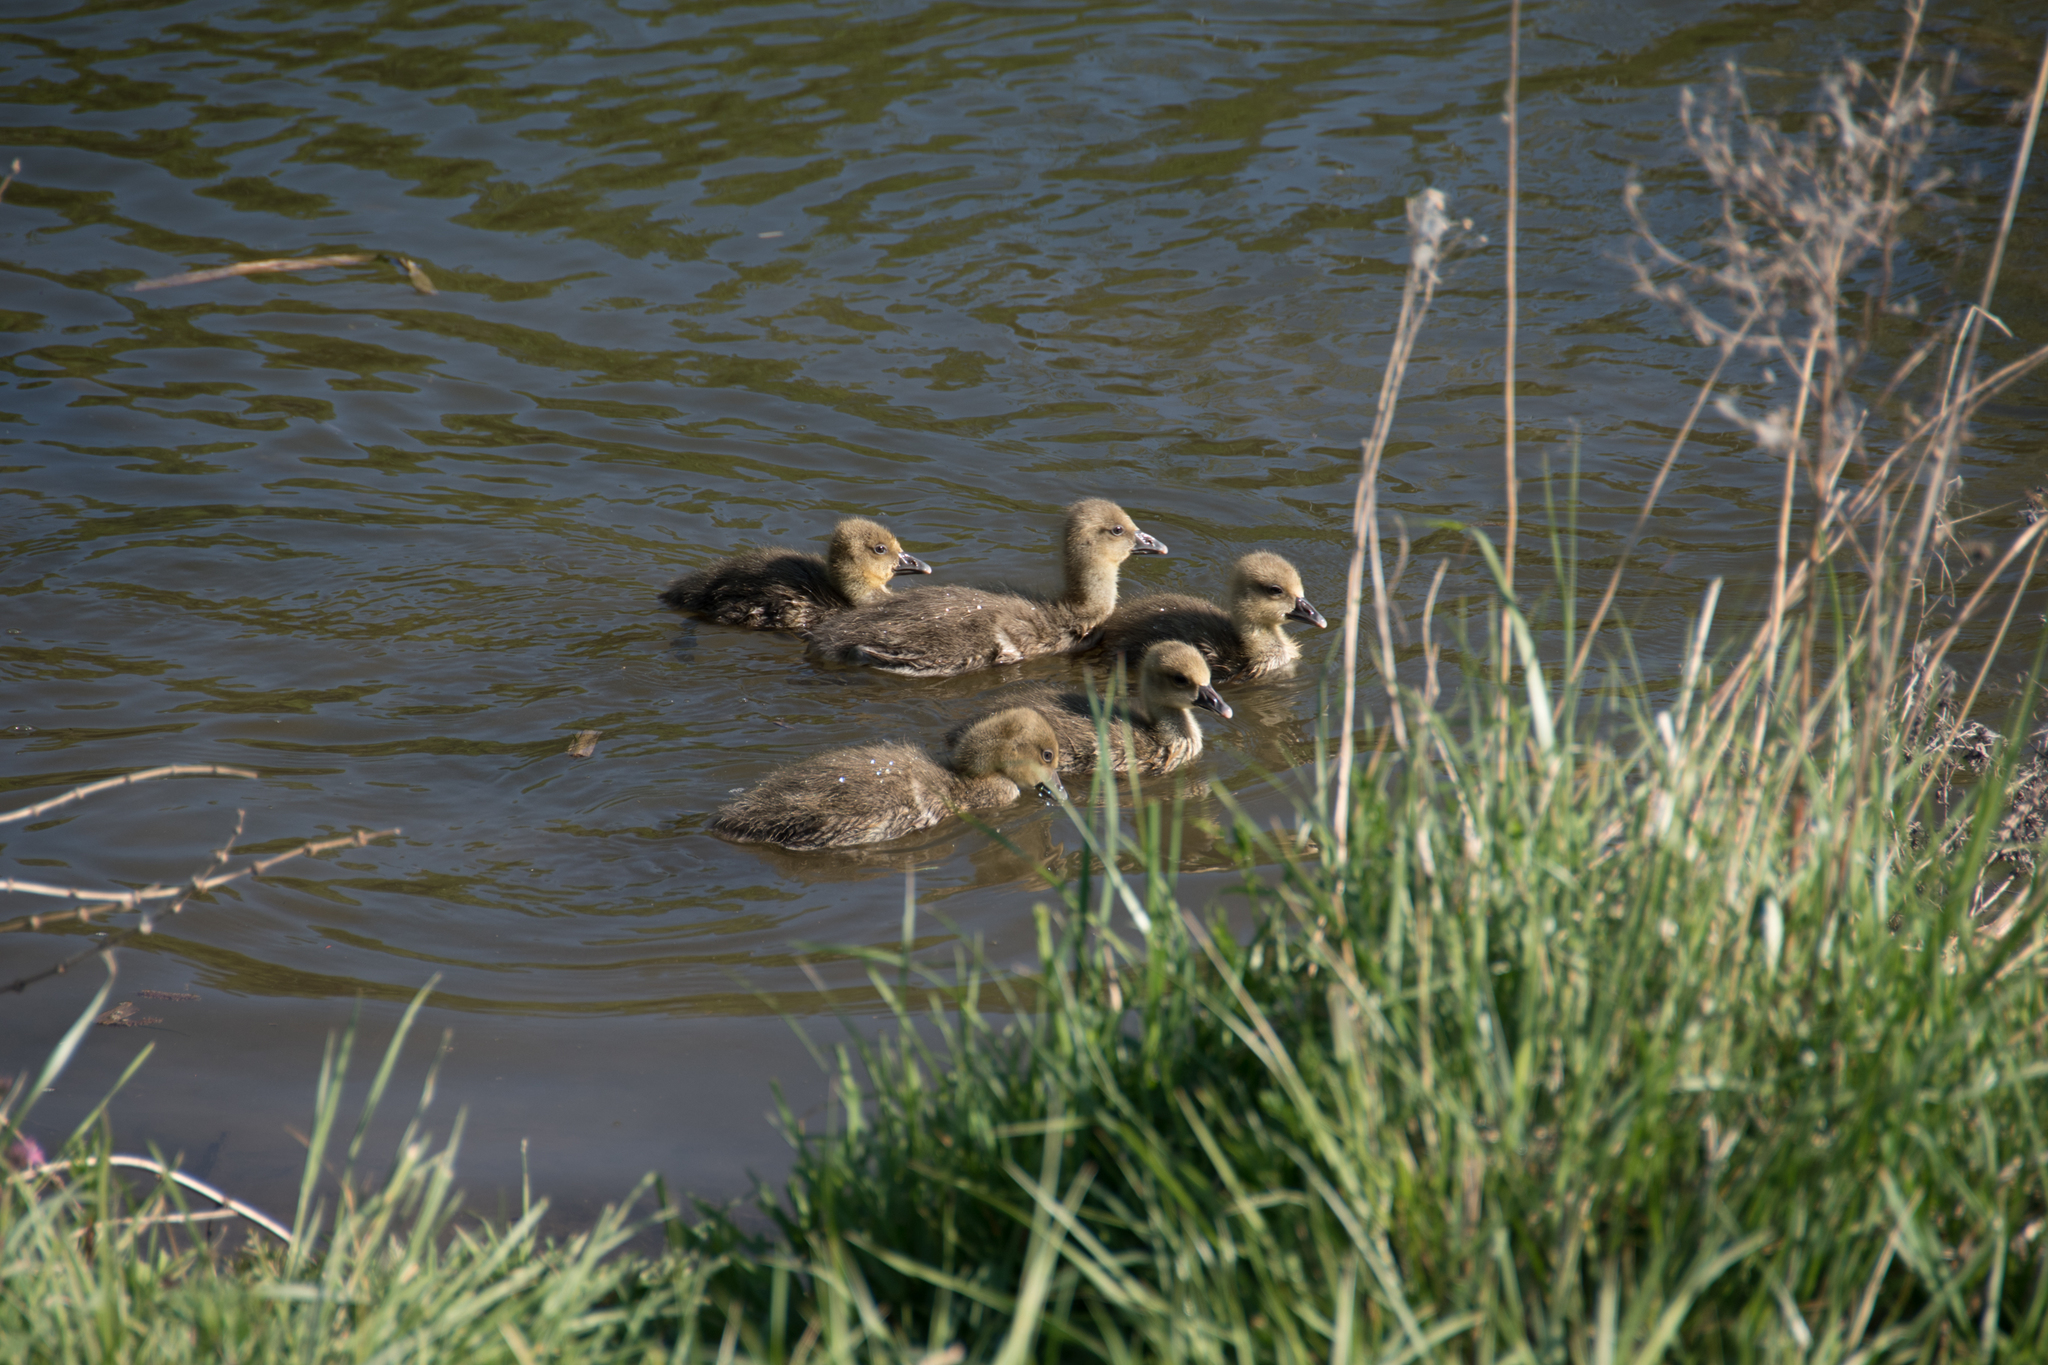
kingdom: Animalia
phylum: Chordata
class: Aves
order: Anseriformes
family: Anatidae
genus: Anser
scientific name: Anser anser
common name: Greylag goose
